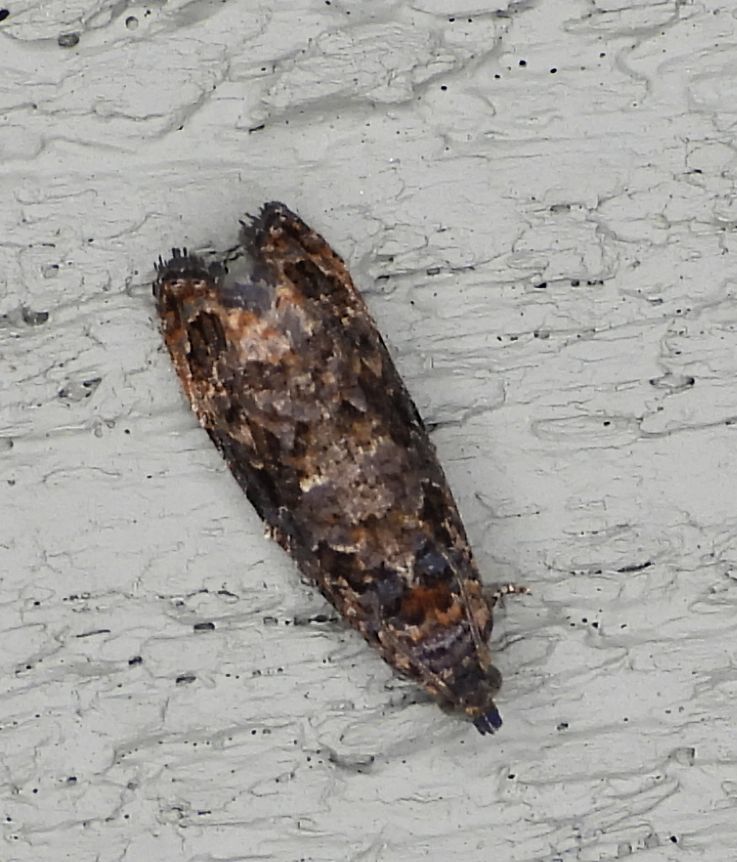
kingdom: Animalia
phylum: Arthropoda
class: Insecta
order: Lepidoptera
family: Tortricidae
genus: Endothenia
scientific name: Endothenia hebesana
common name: Verbena bud moth
